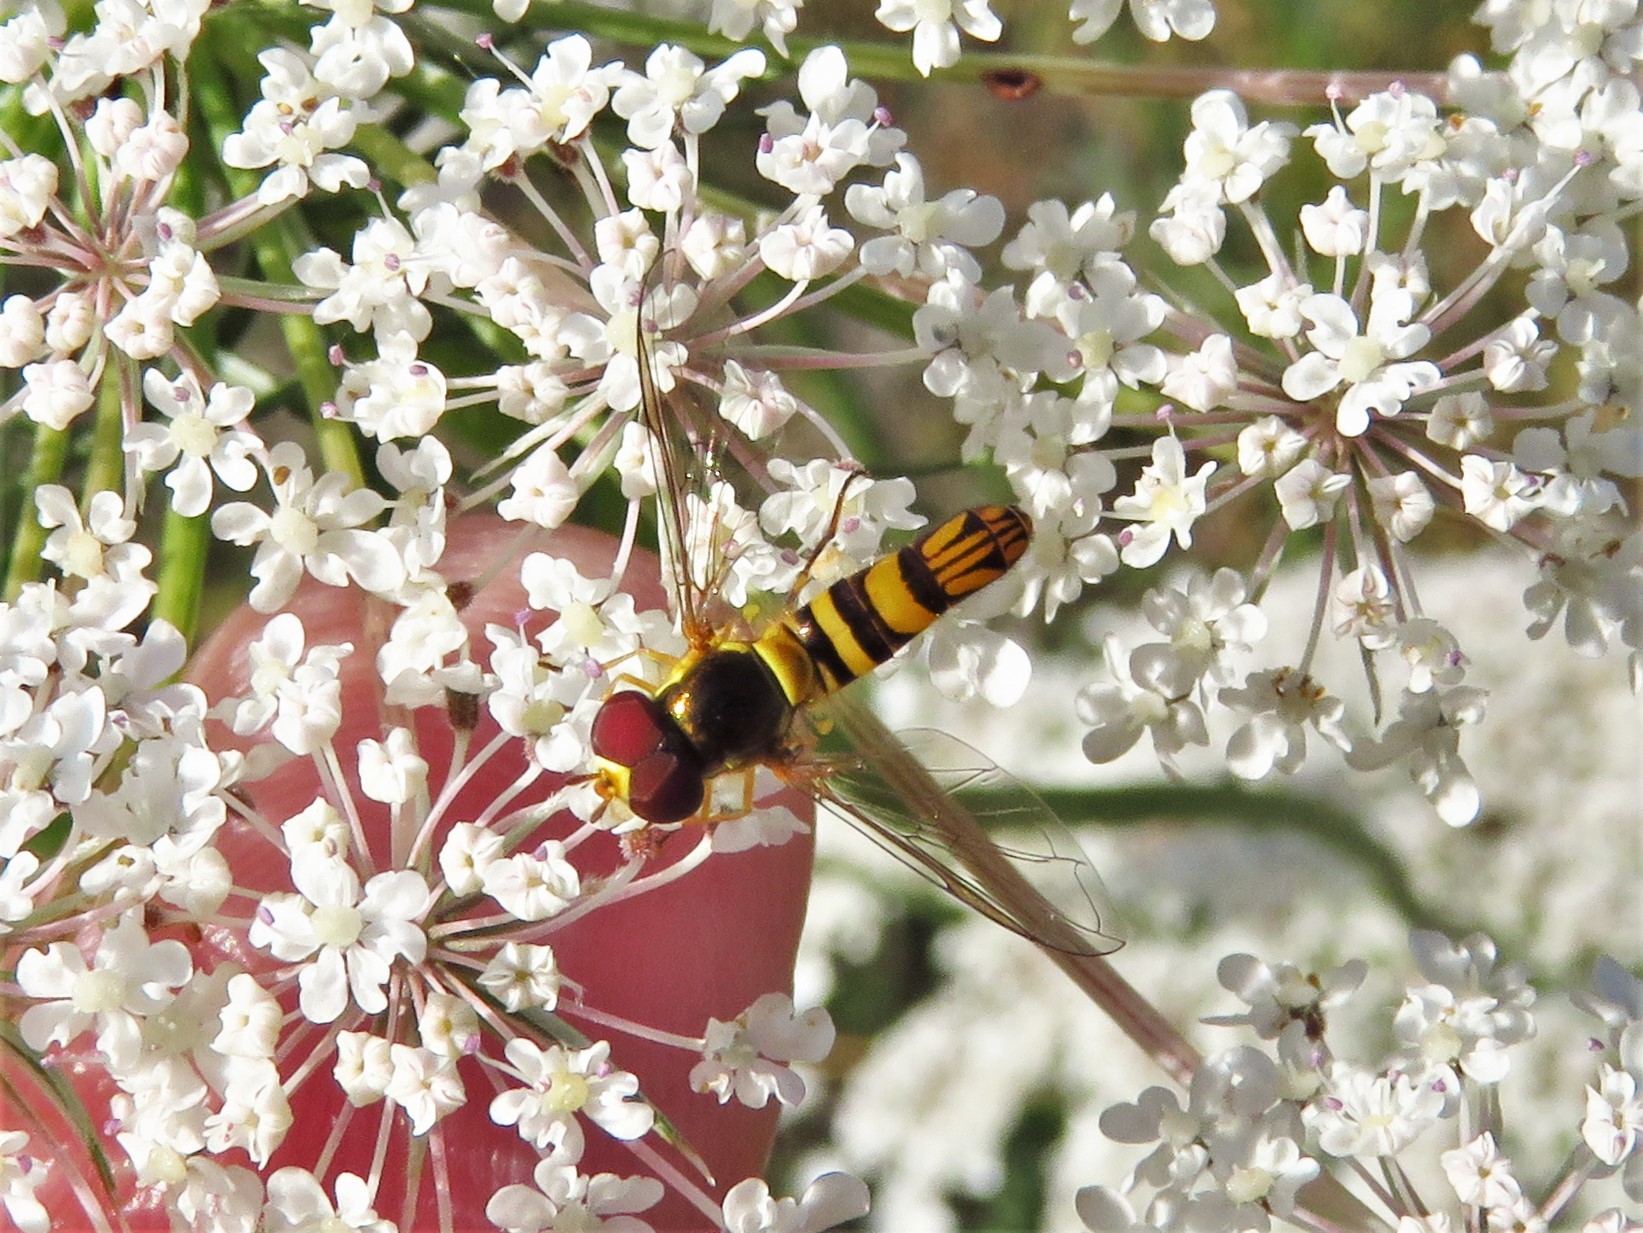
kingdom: Animalia
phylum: Arthropoda
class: Insecta
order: Diptera
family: Syrphidae
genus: Allograpta
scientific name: Allograpta obliqua
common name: Common oblique syrphid
